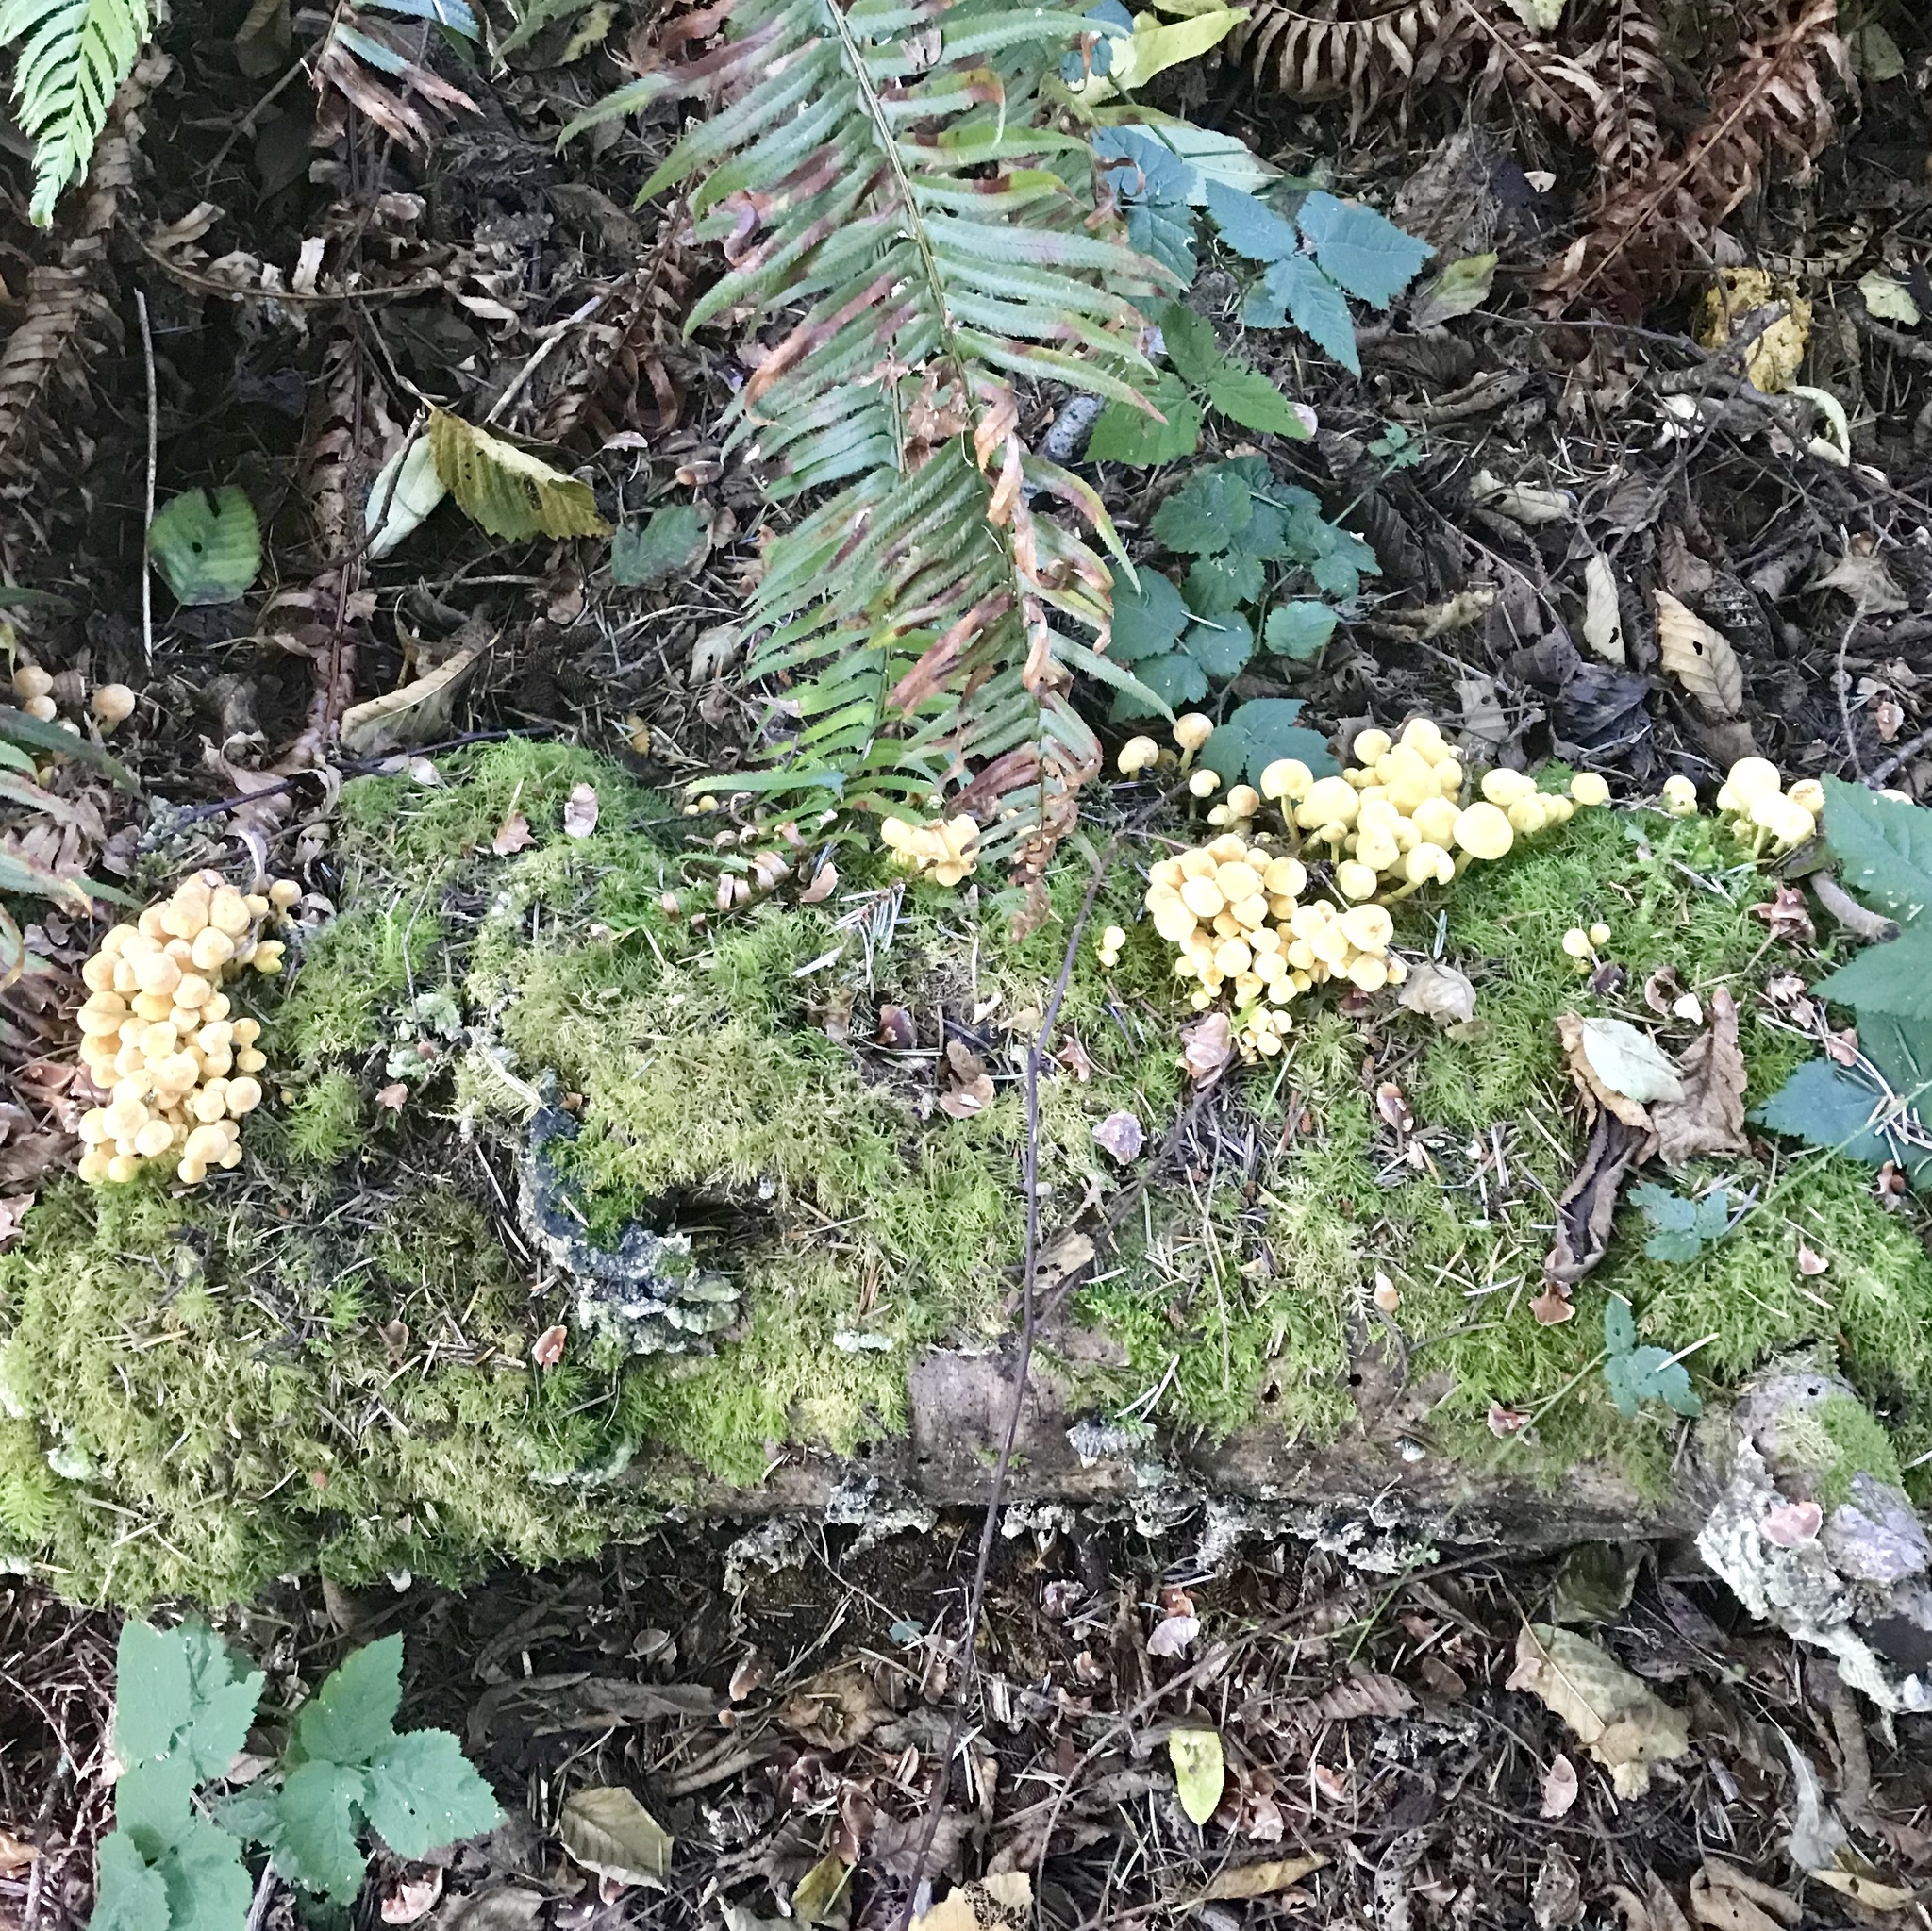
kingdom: Fungi
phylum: Basidiomycota
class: Agaricomycetes
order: Agaricales
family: Strophariaceae
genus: Hypholoma
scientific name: Hypholoma fasciculare
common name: Sulphur tuft
